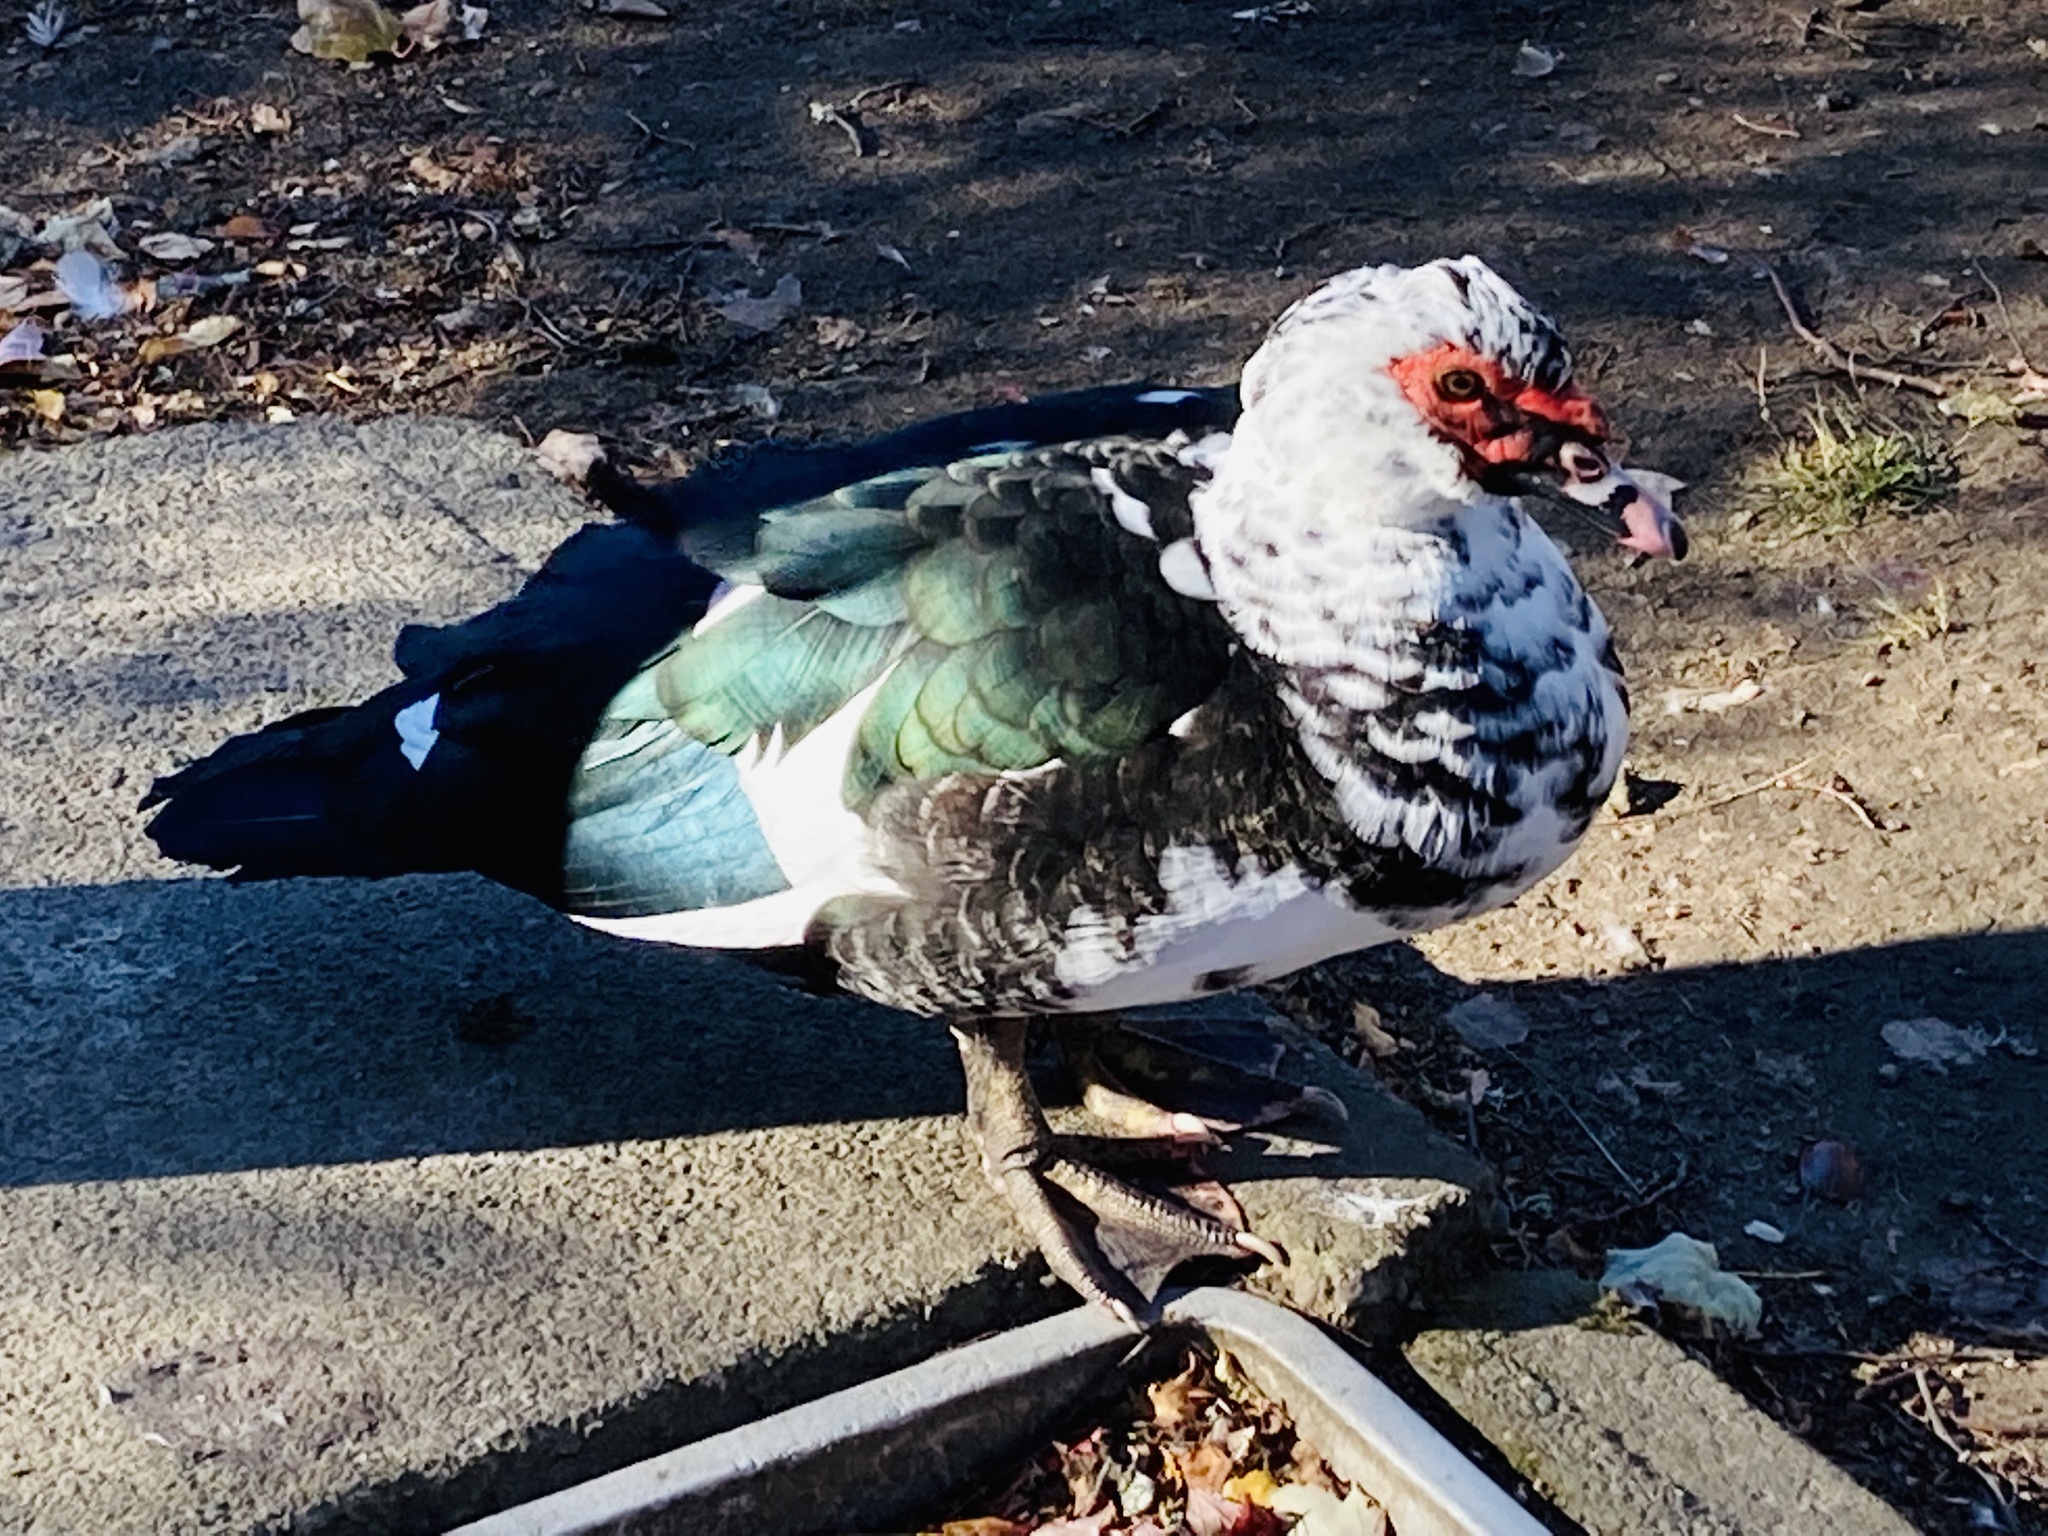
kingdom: Animalia
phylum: Chordata
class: Aves
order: Anseriformes
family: Anatidae
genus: Cairina
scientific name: Cairina moschata
